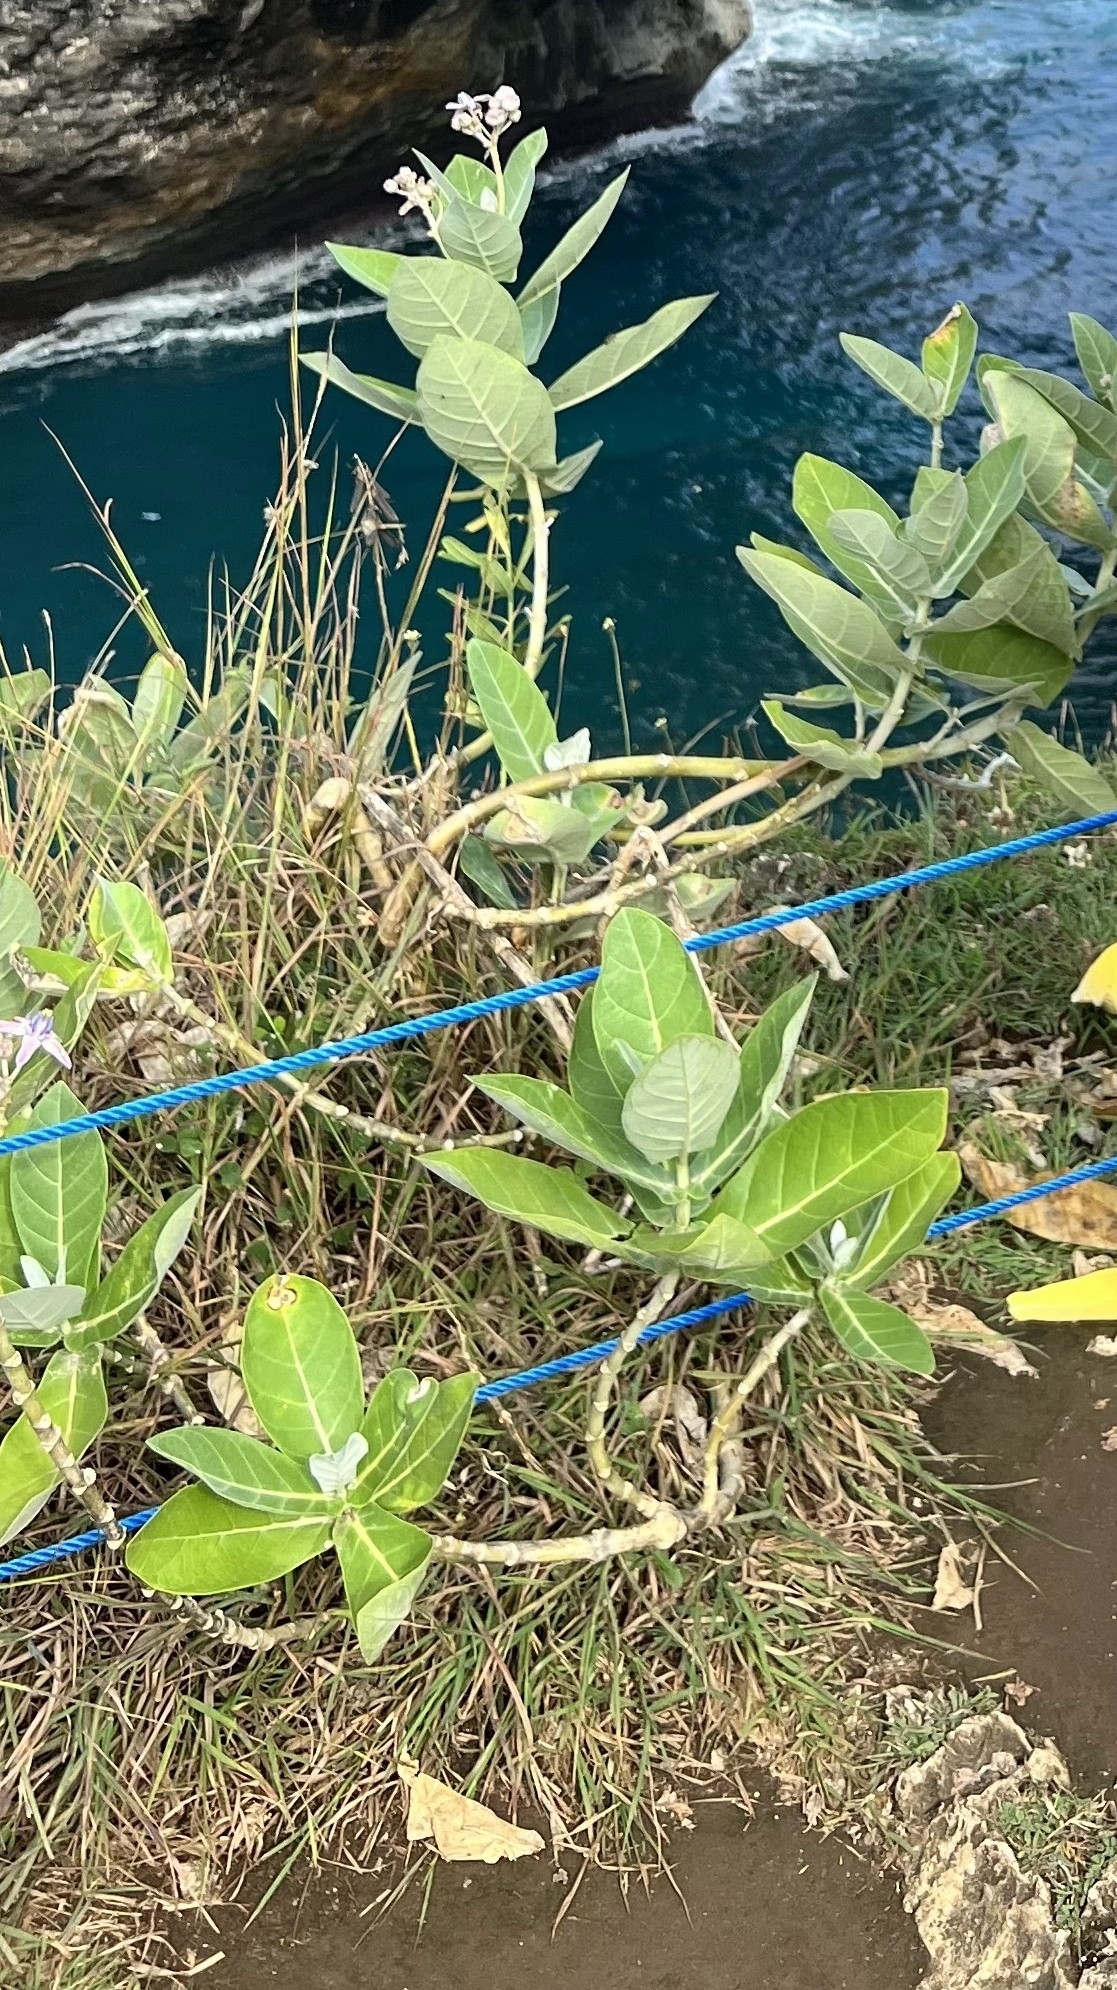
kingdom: Plantae
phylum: Tracheophyta
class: Magnoliopsida
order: Gentianales
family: Apocynaceae
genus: Calotropis
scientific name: Calotropis gigantea
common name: Crown flower
